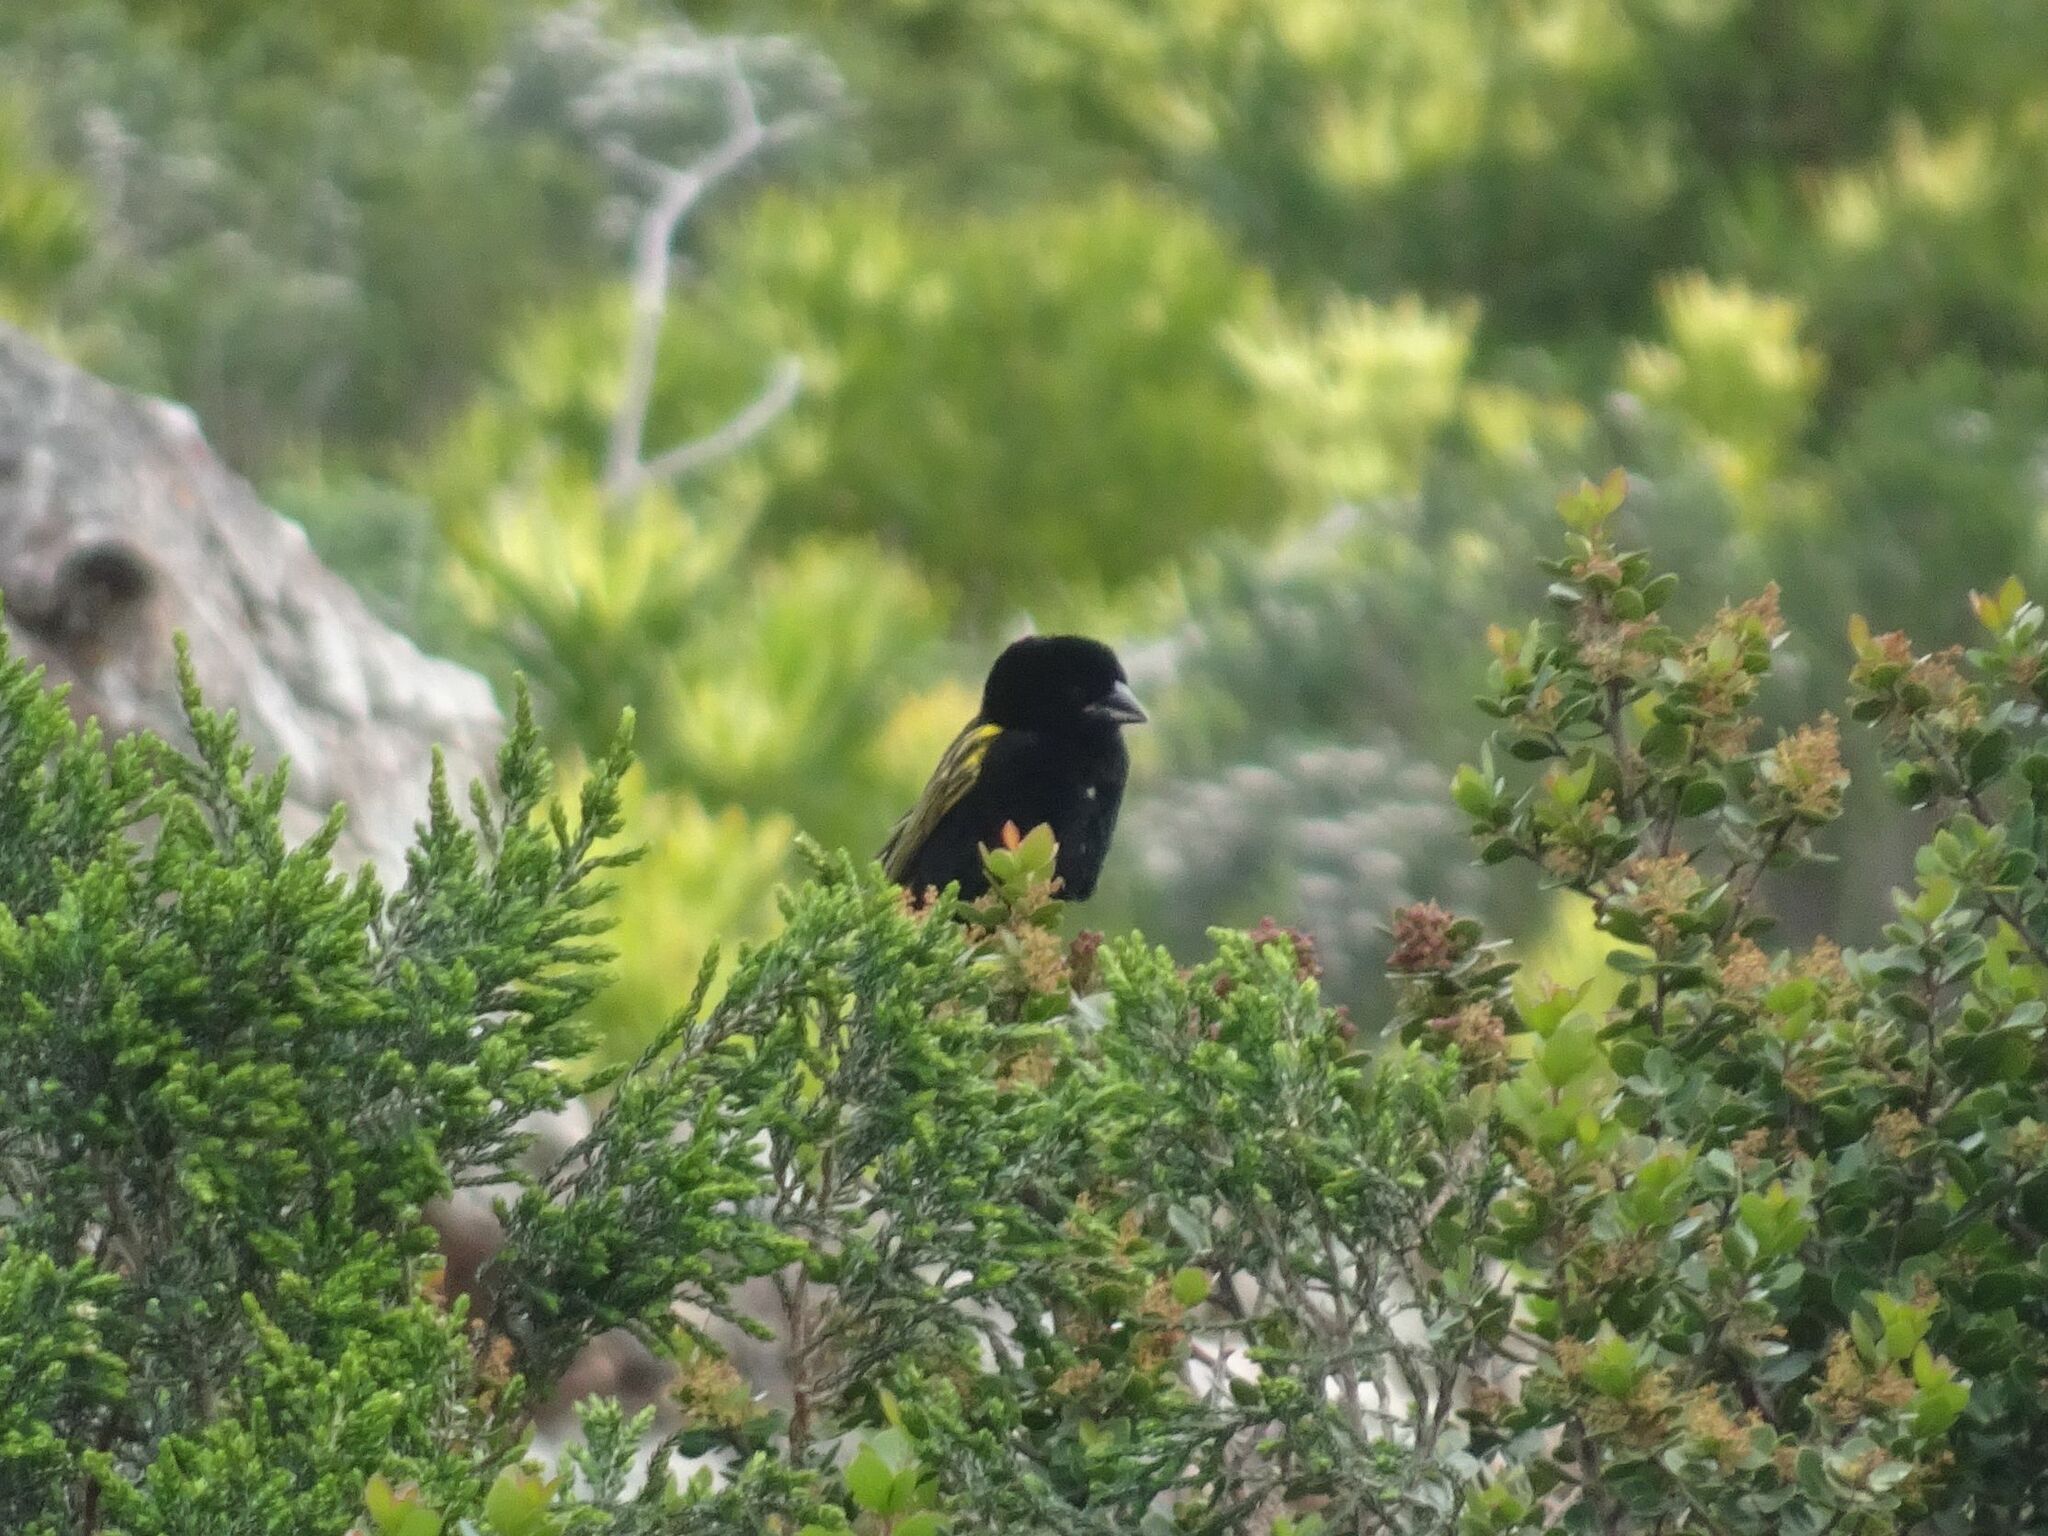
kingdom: Animalia
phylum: Chordata
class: Aves
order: Passeriformes
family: Ploceidae
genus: Euplectes
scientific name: Euplectes capensis
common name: Yellow bishop
